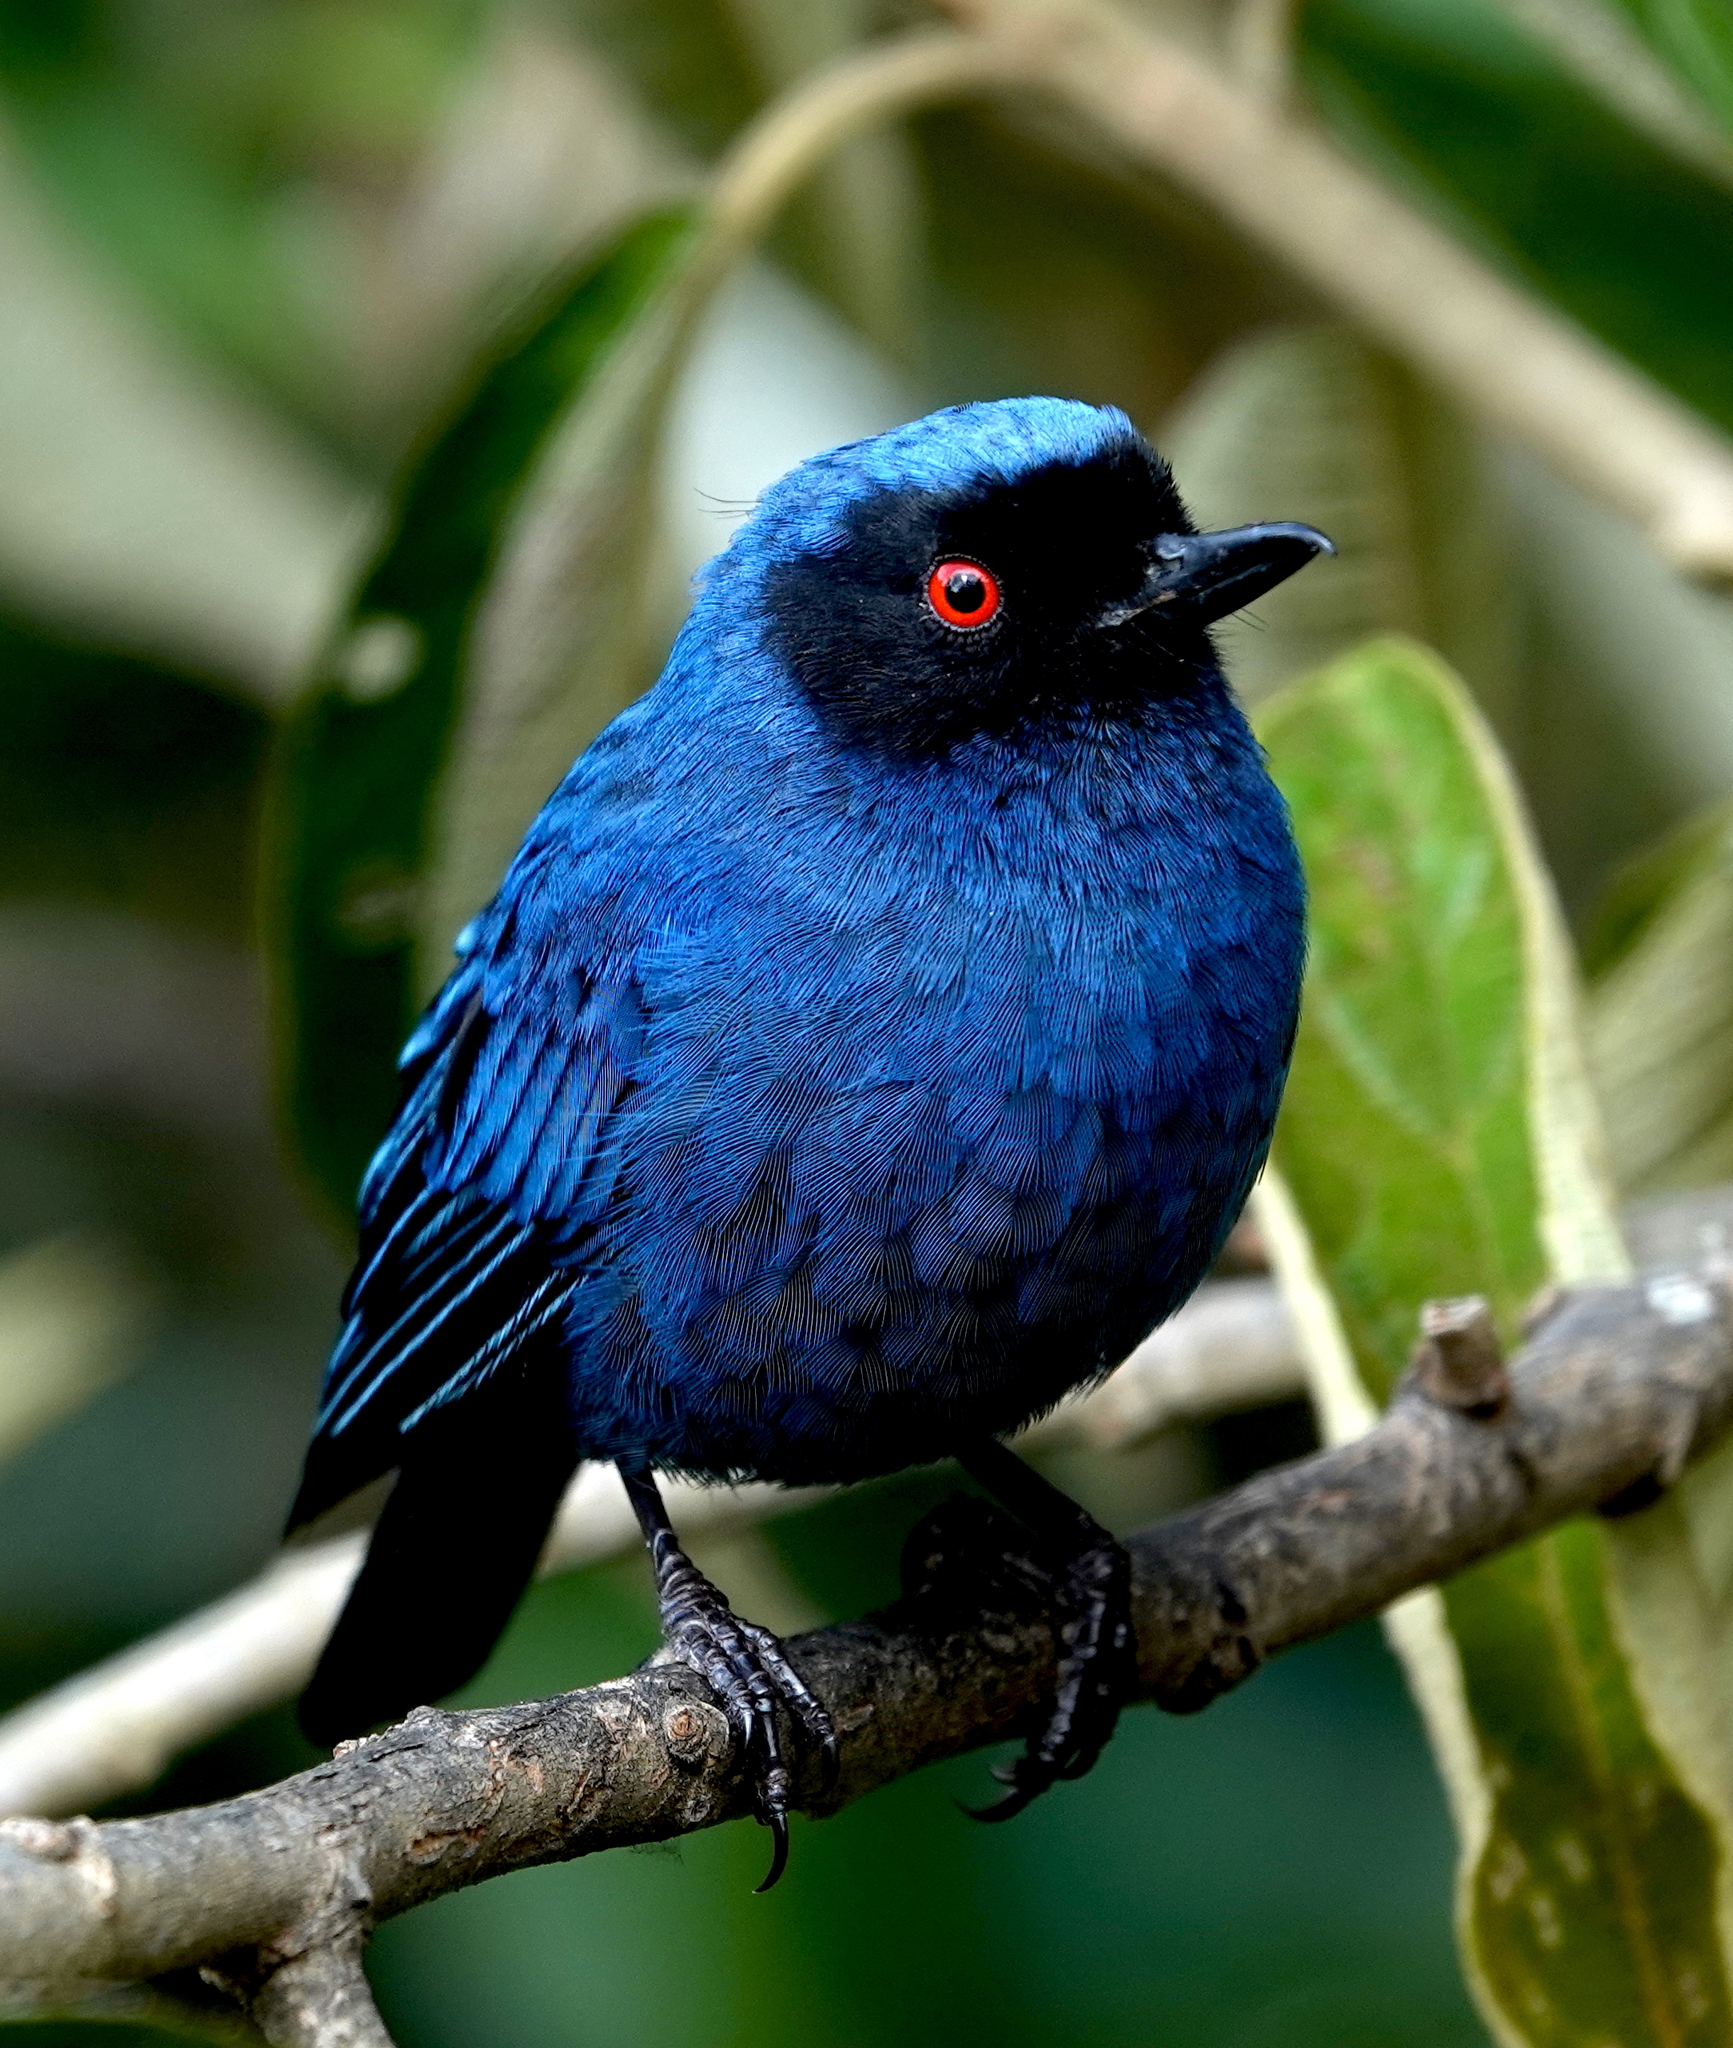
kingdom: Animalia
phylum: Chordata
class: Aves
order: Passeriformes
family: Thraupidae
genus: Diglossa
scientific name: Diglossa cyanea
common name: Masked flowerpiercer
